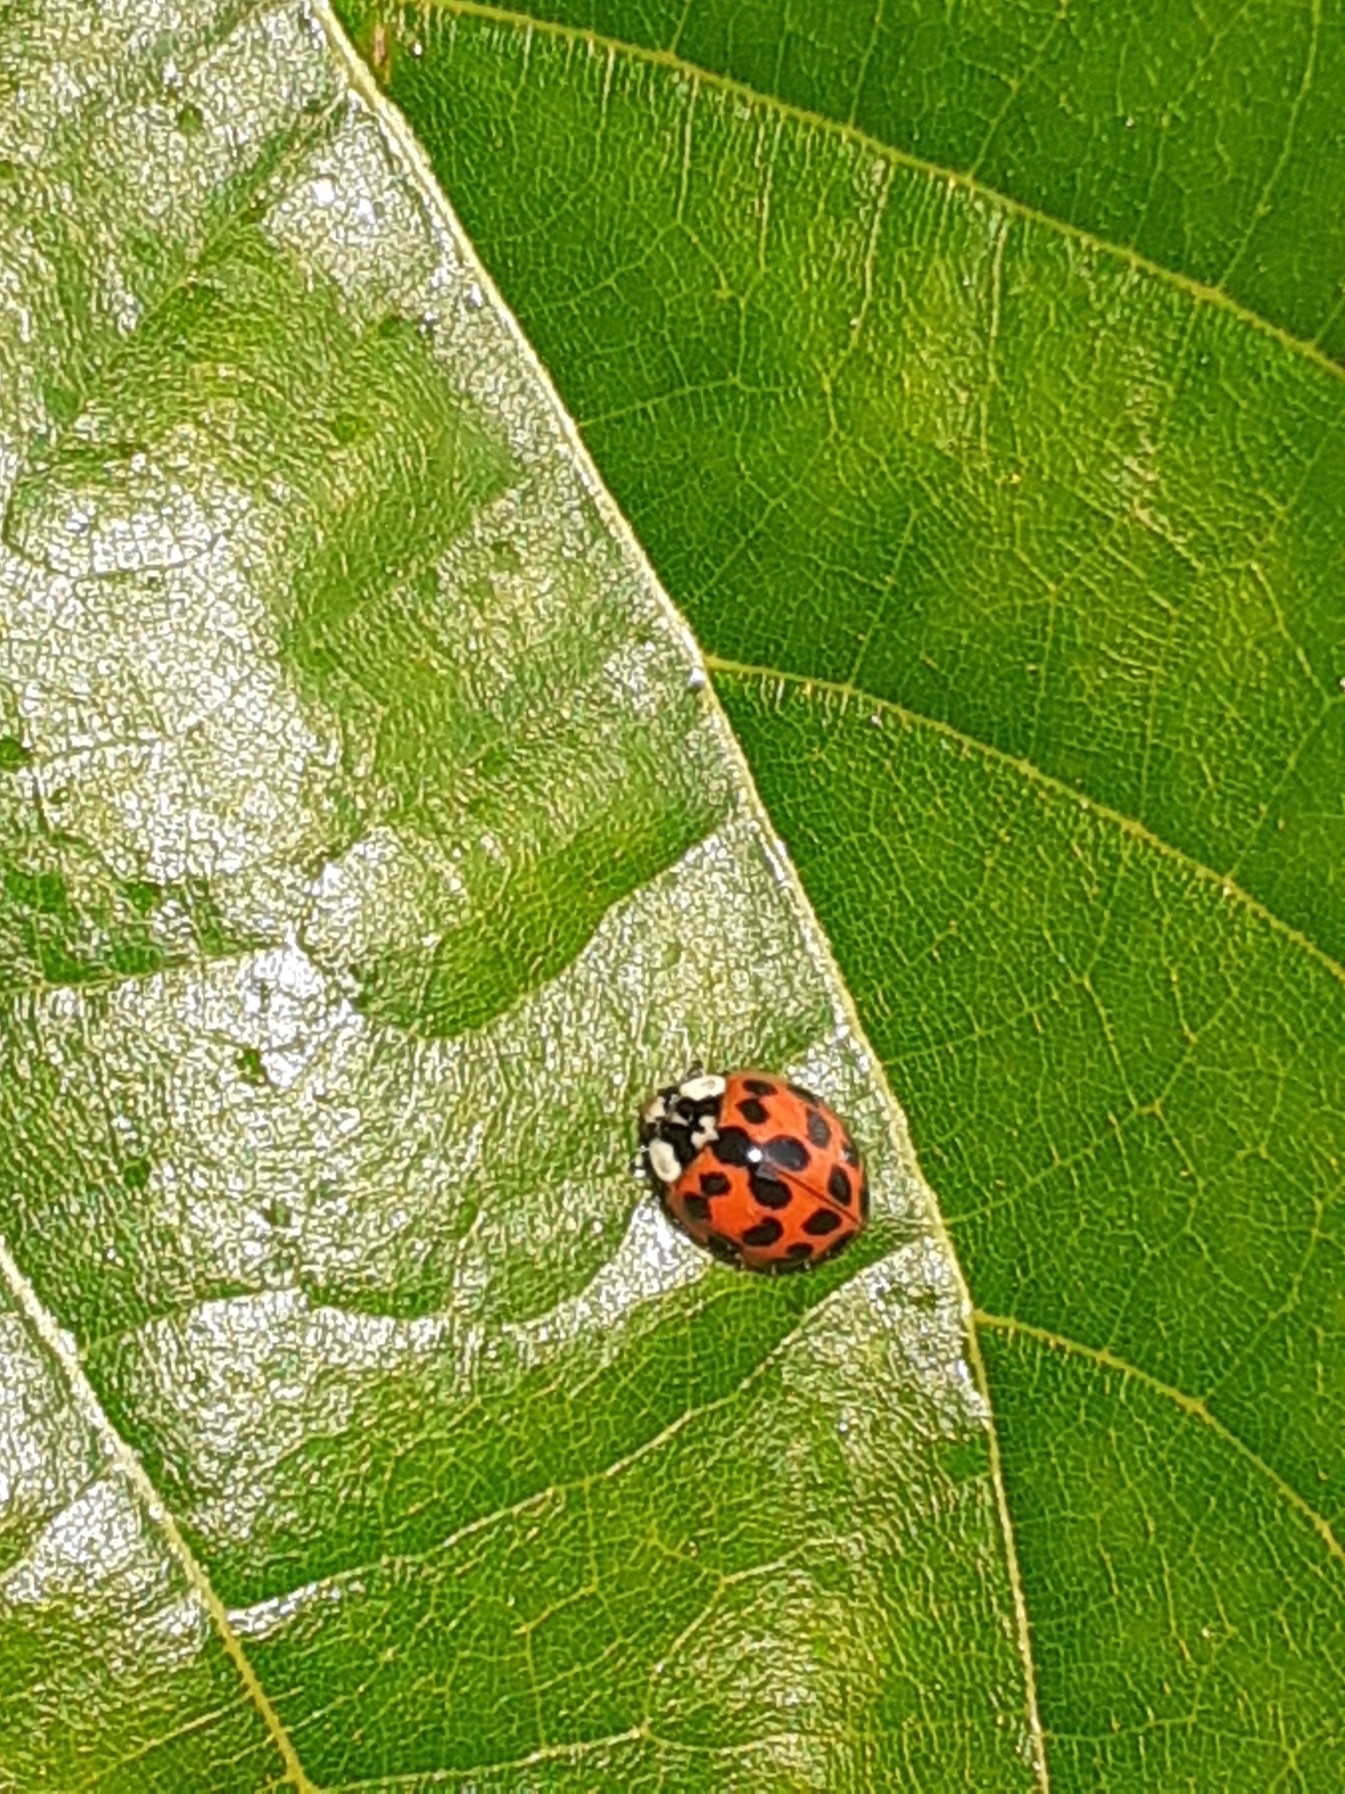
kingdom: Animalia
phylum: Arthropoda
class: Insecta
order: Coleoptera
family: Coccinellidae
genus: Harmonia
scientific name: Harmonia axyridis
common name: Harlequin ladybird
